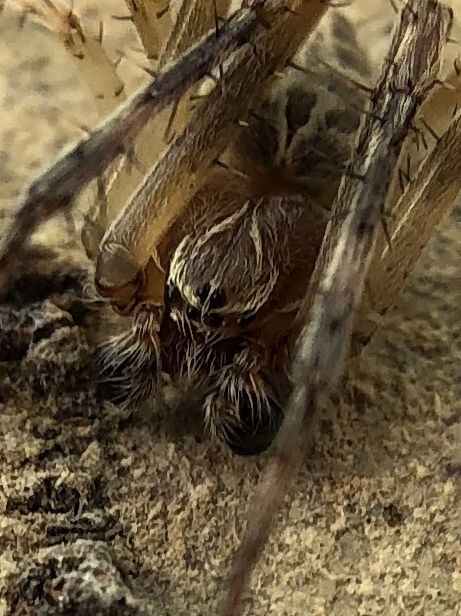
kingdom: Animalia
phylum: Arthropoda
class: Arachnida
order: Araneae
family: Araneidae
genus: Larinioides
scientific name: Larinioides sclopetarius
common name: Bridge orbweaver
